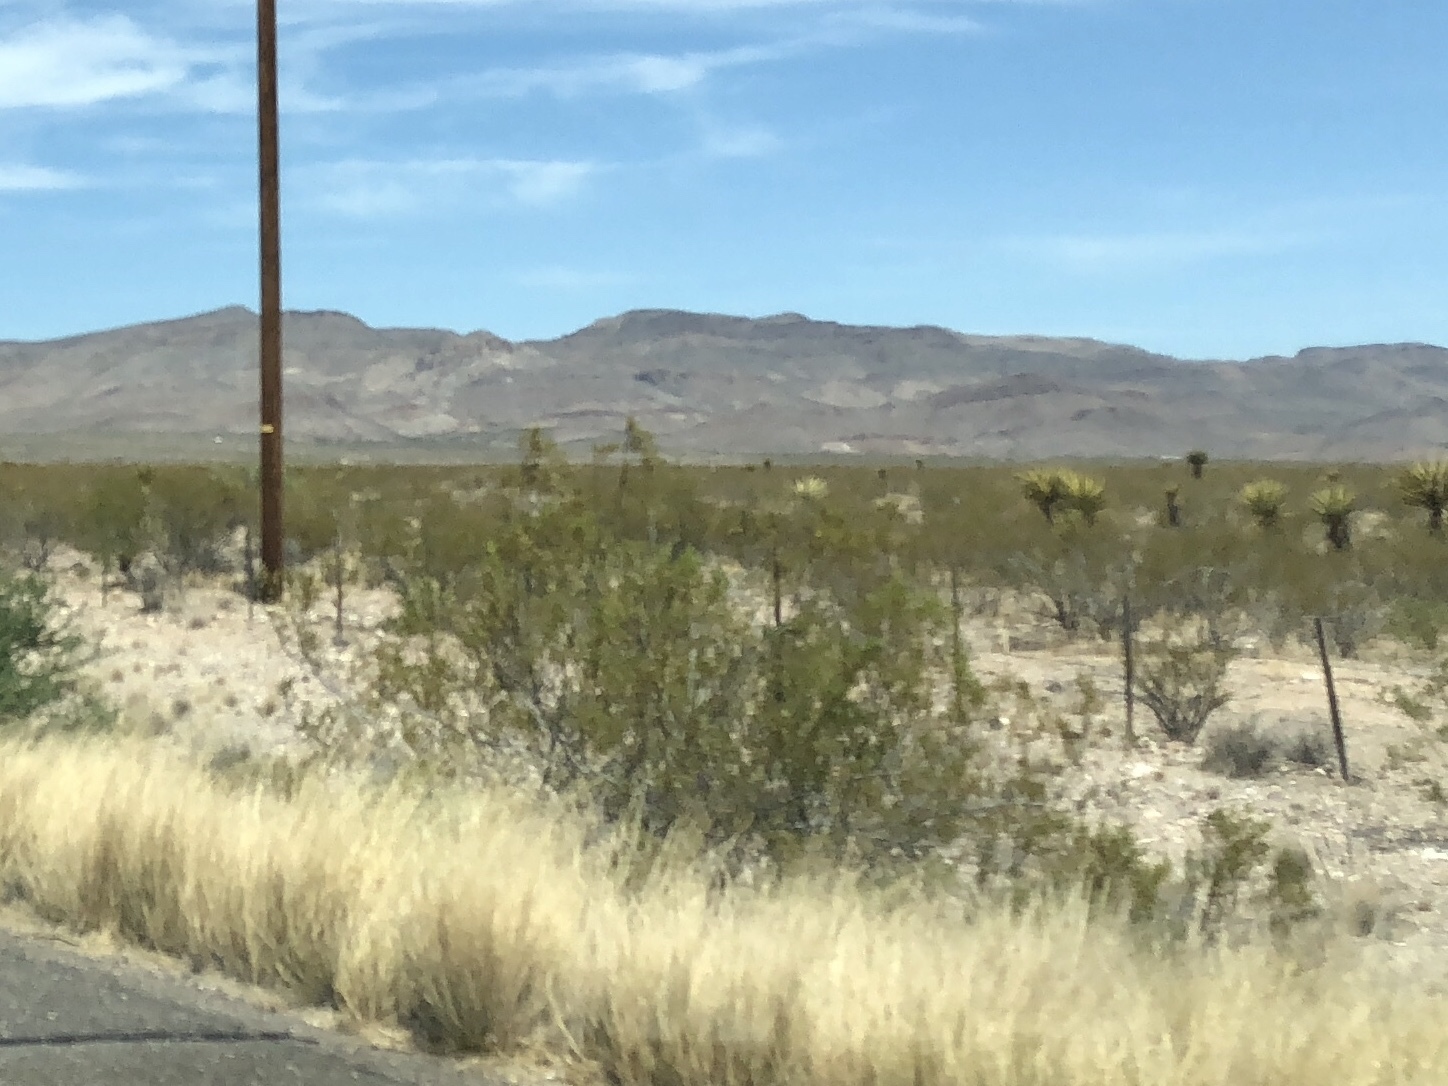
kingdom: Plantae
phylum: Tracheophyta
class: Magnoliopsida
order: Zygophyllales
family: Zygophyllaceae
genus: Larrea
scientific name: Larrea tridentata
